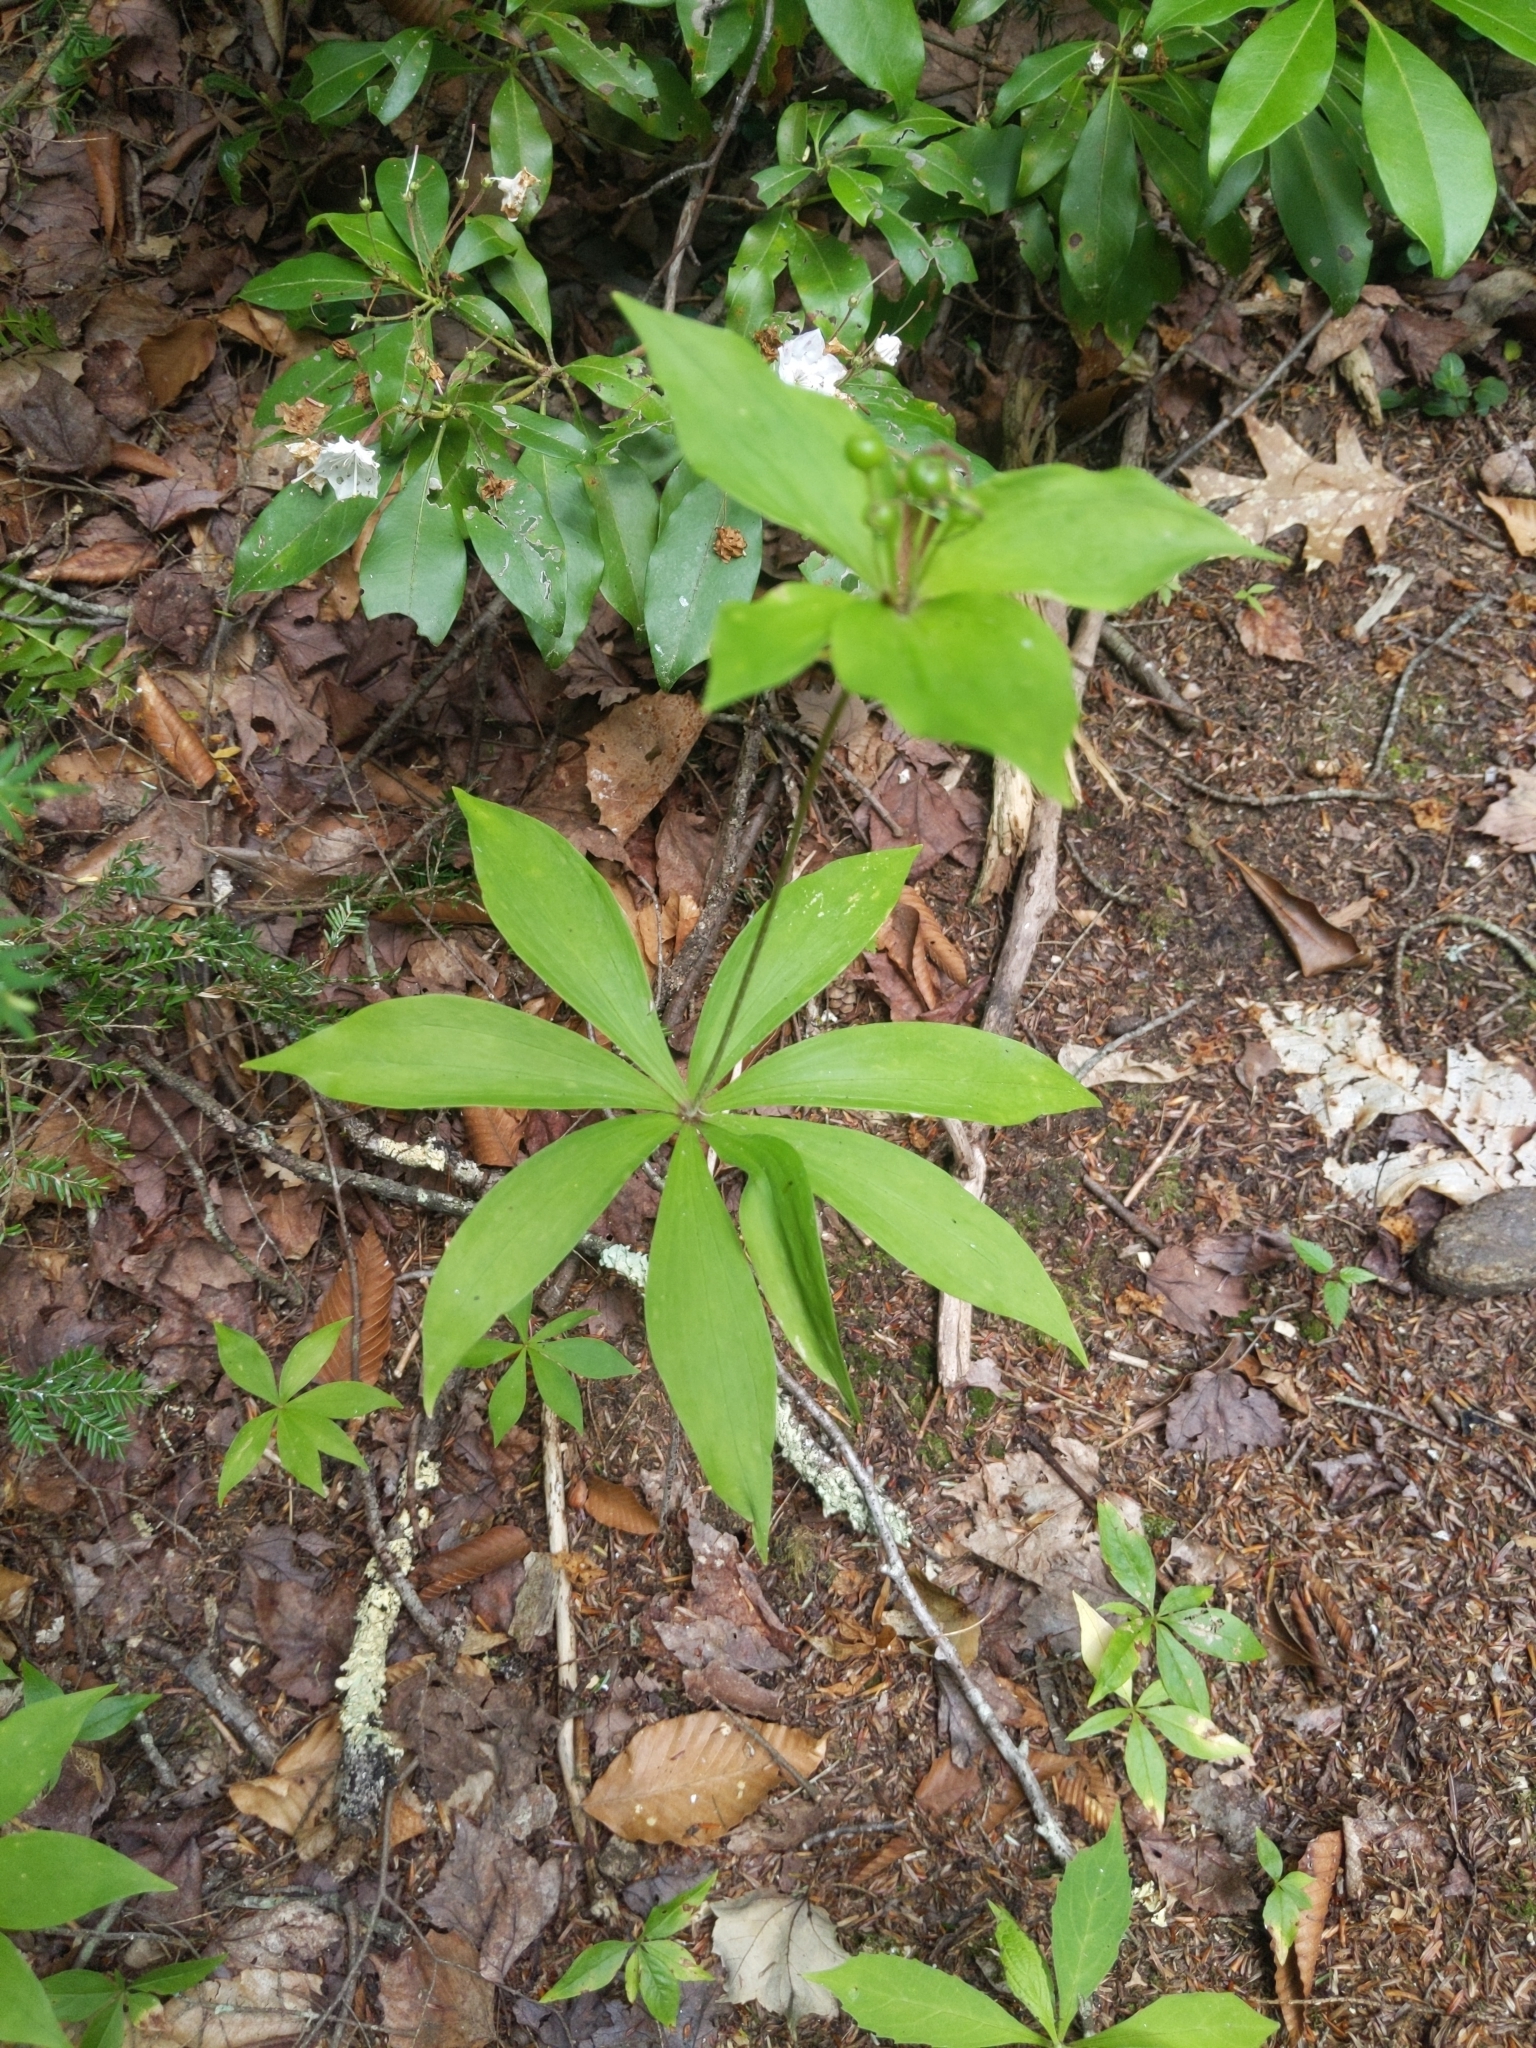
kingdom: Plantae
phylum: Tracheophyta
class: Liliopsida
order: Liliales
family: Liliaceae
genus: Medeola
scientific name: Medeola virginiana
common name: Indian cucumber-root
